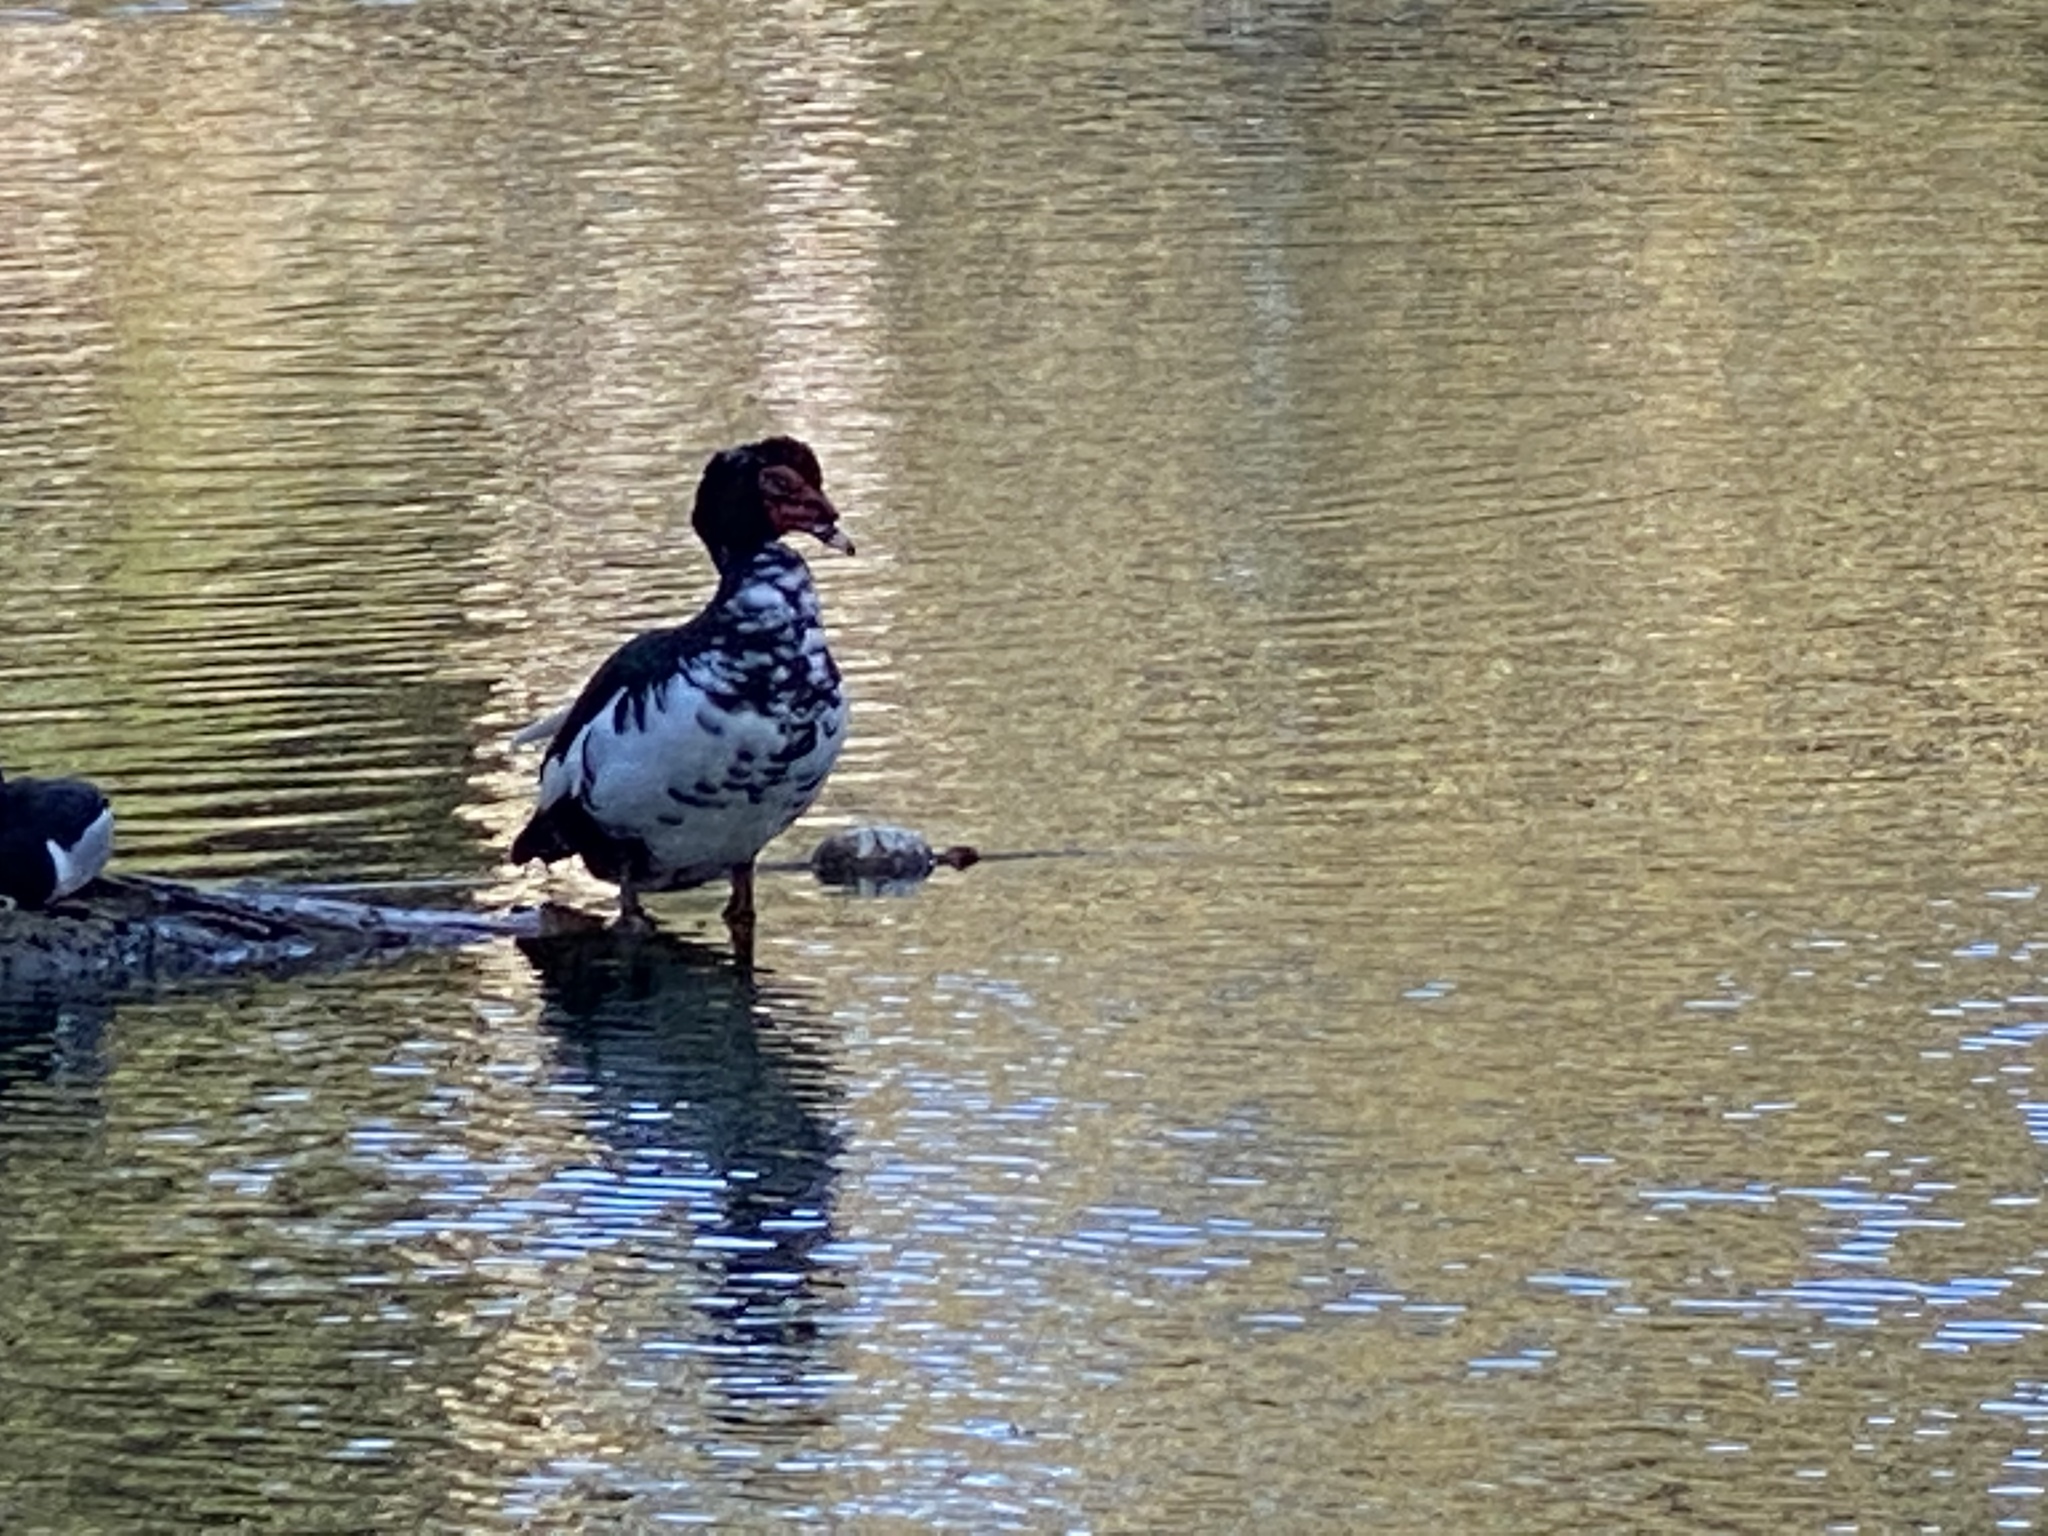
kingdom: Animalia
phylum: Chordata
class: Aves
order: Anseriformes
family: Anatidae
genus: Cairina
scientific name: Cairina moschata
